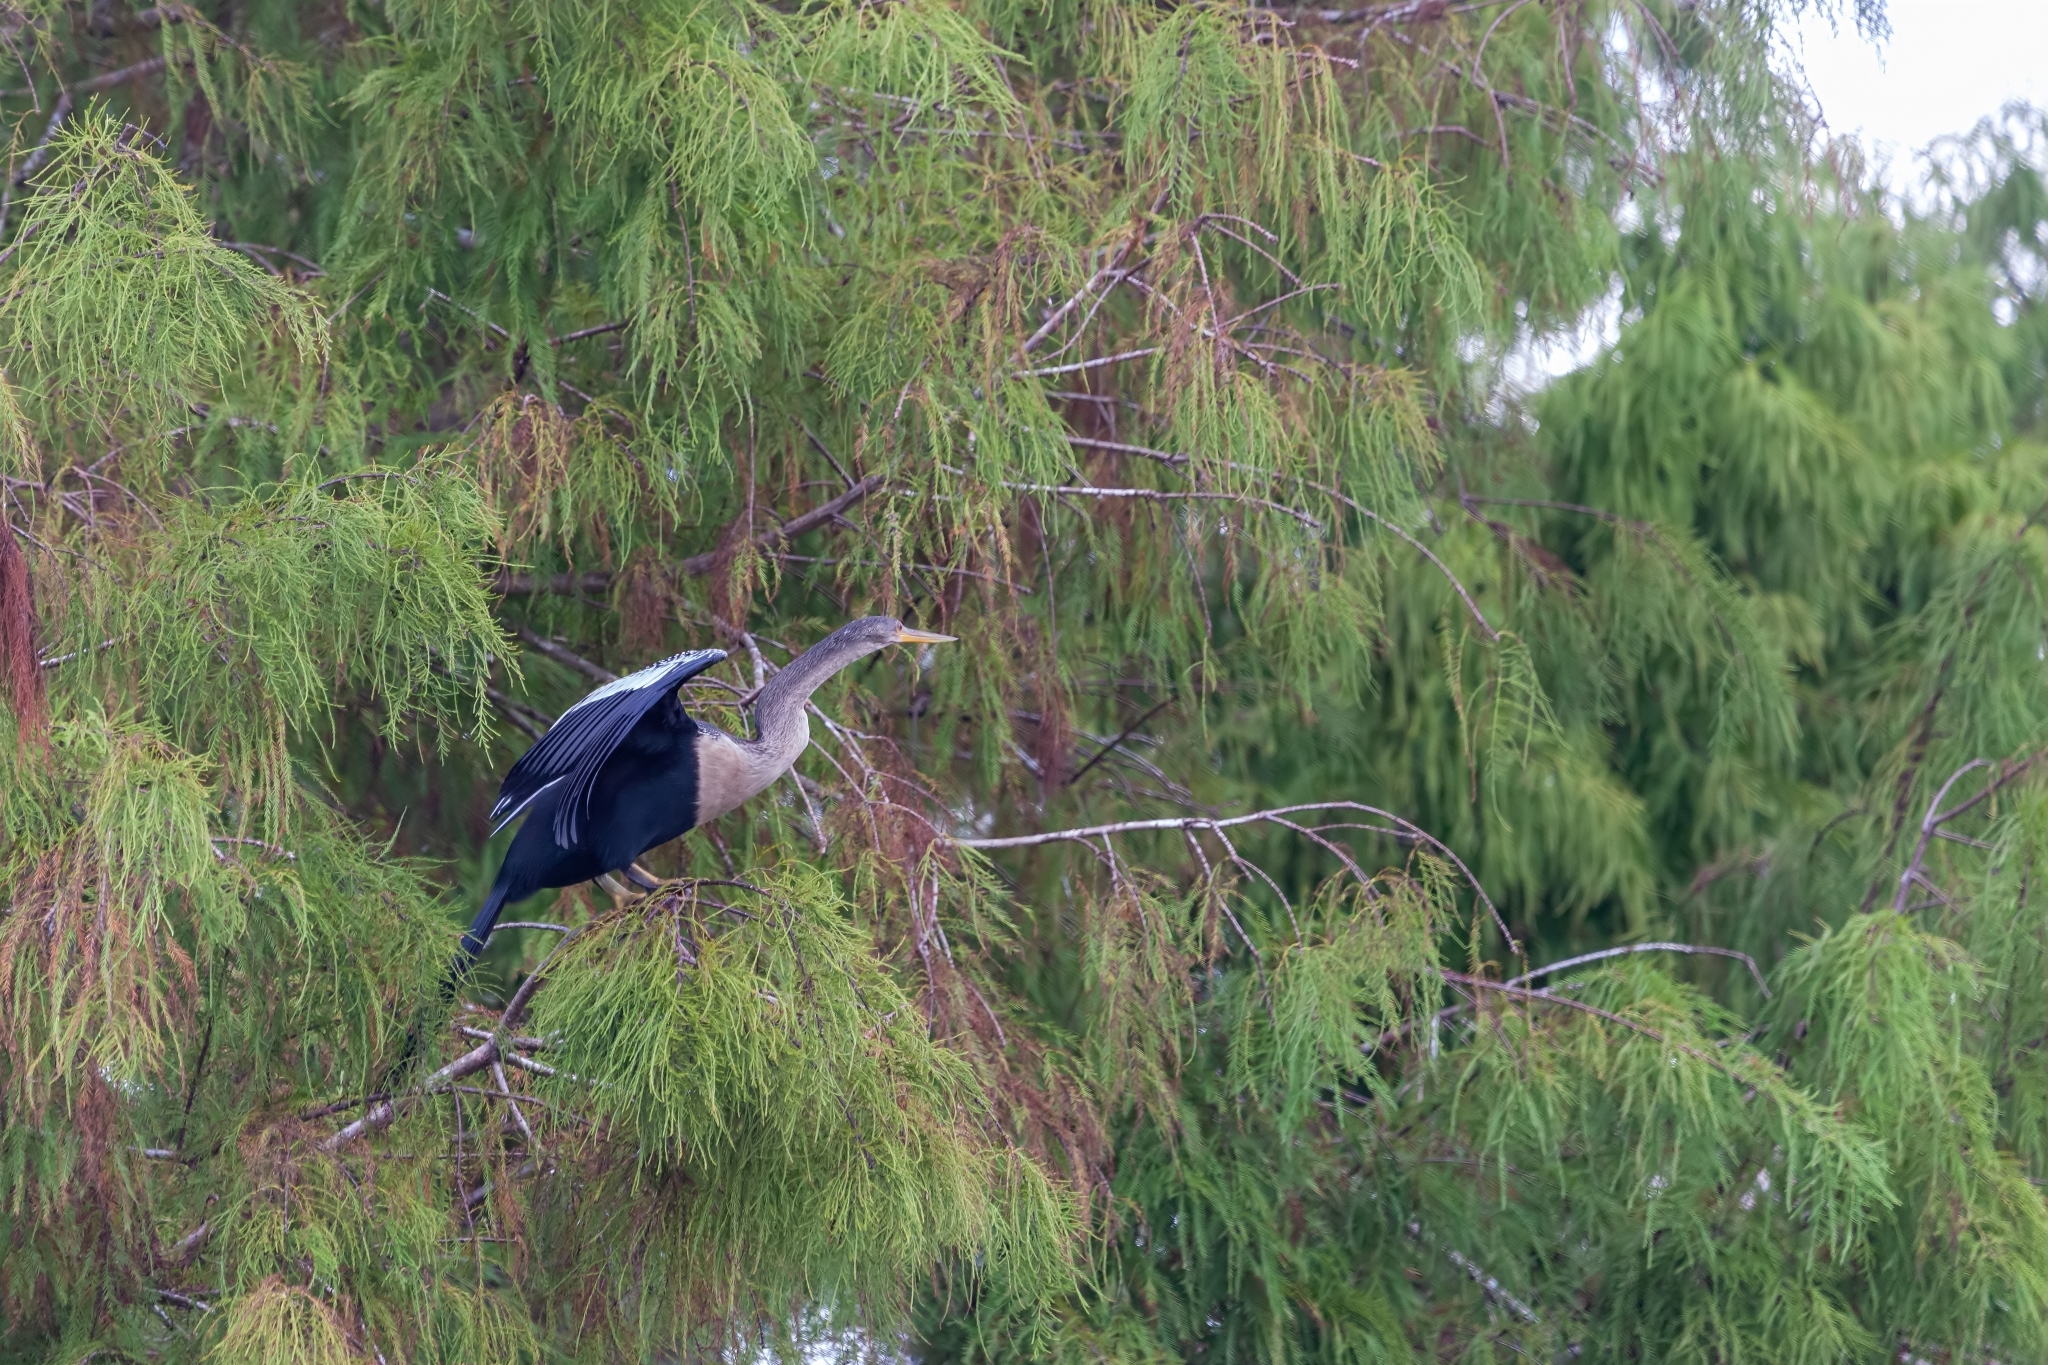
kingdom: Animalia
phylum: Chordata
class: Aves
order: Suliformes
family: Anhingidae
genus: Anhinga
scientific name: Anhinga anhinga
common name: Anhinga
